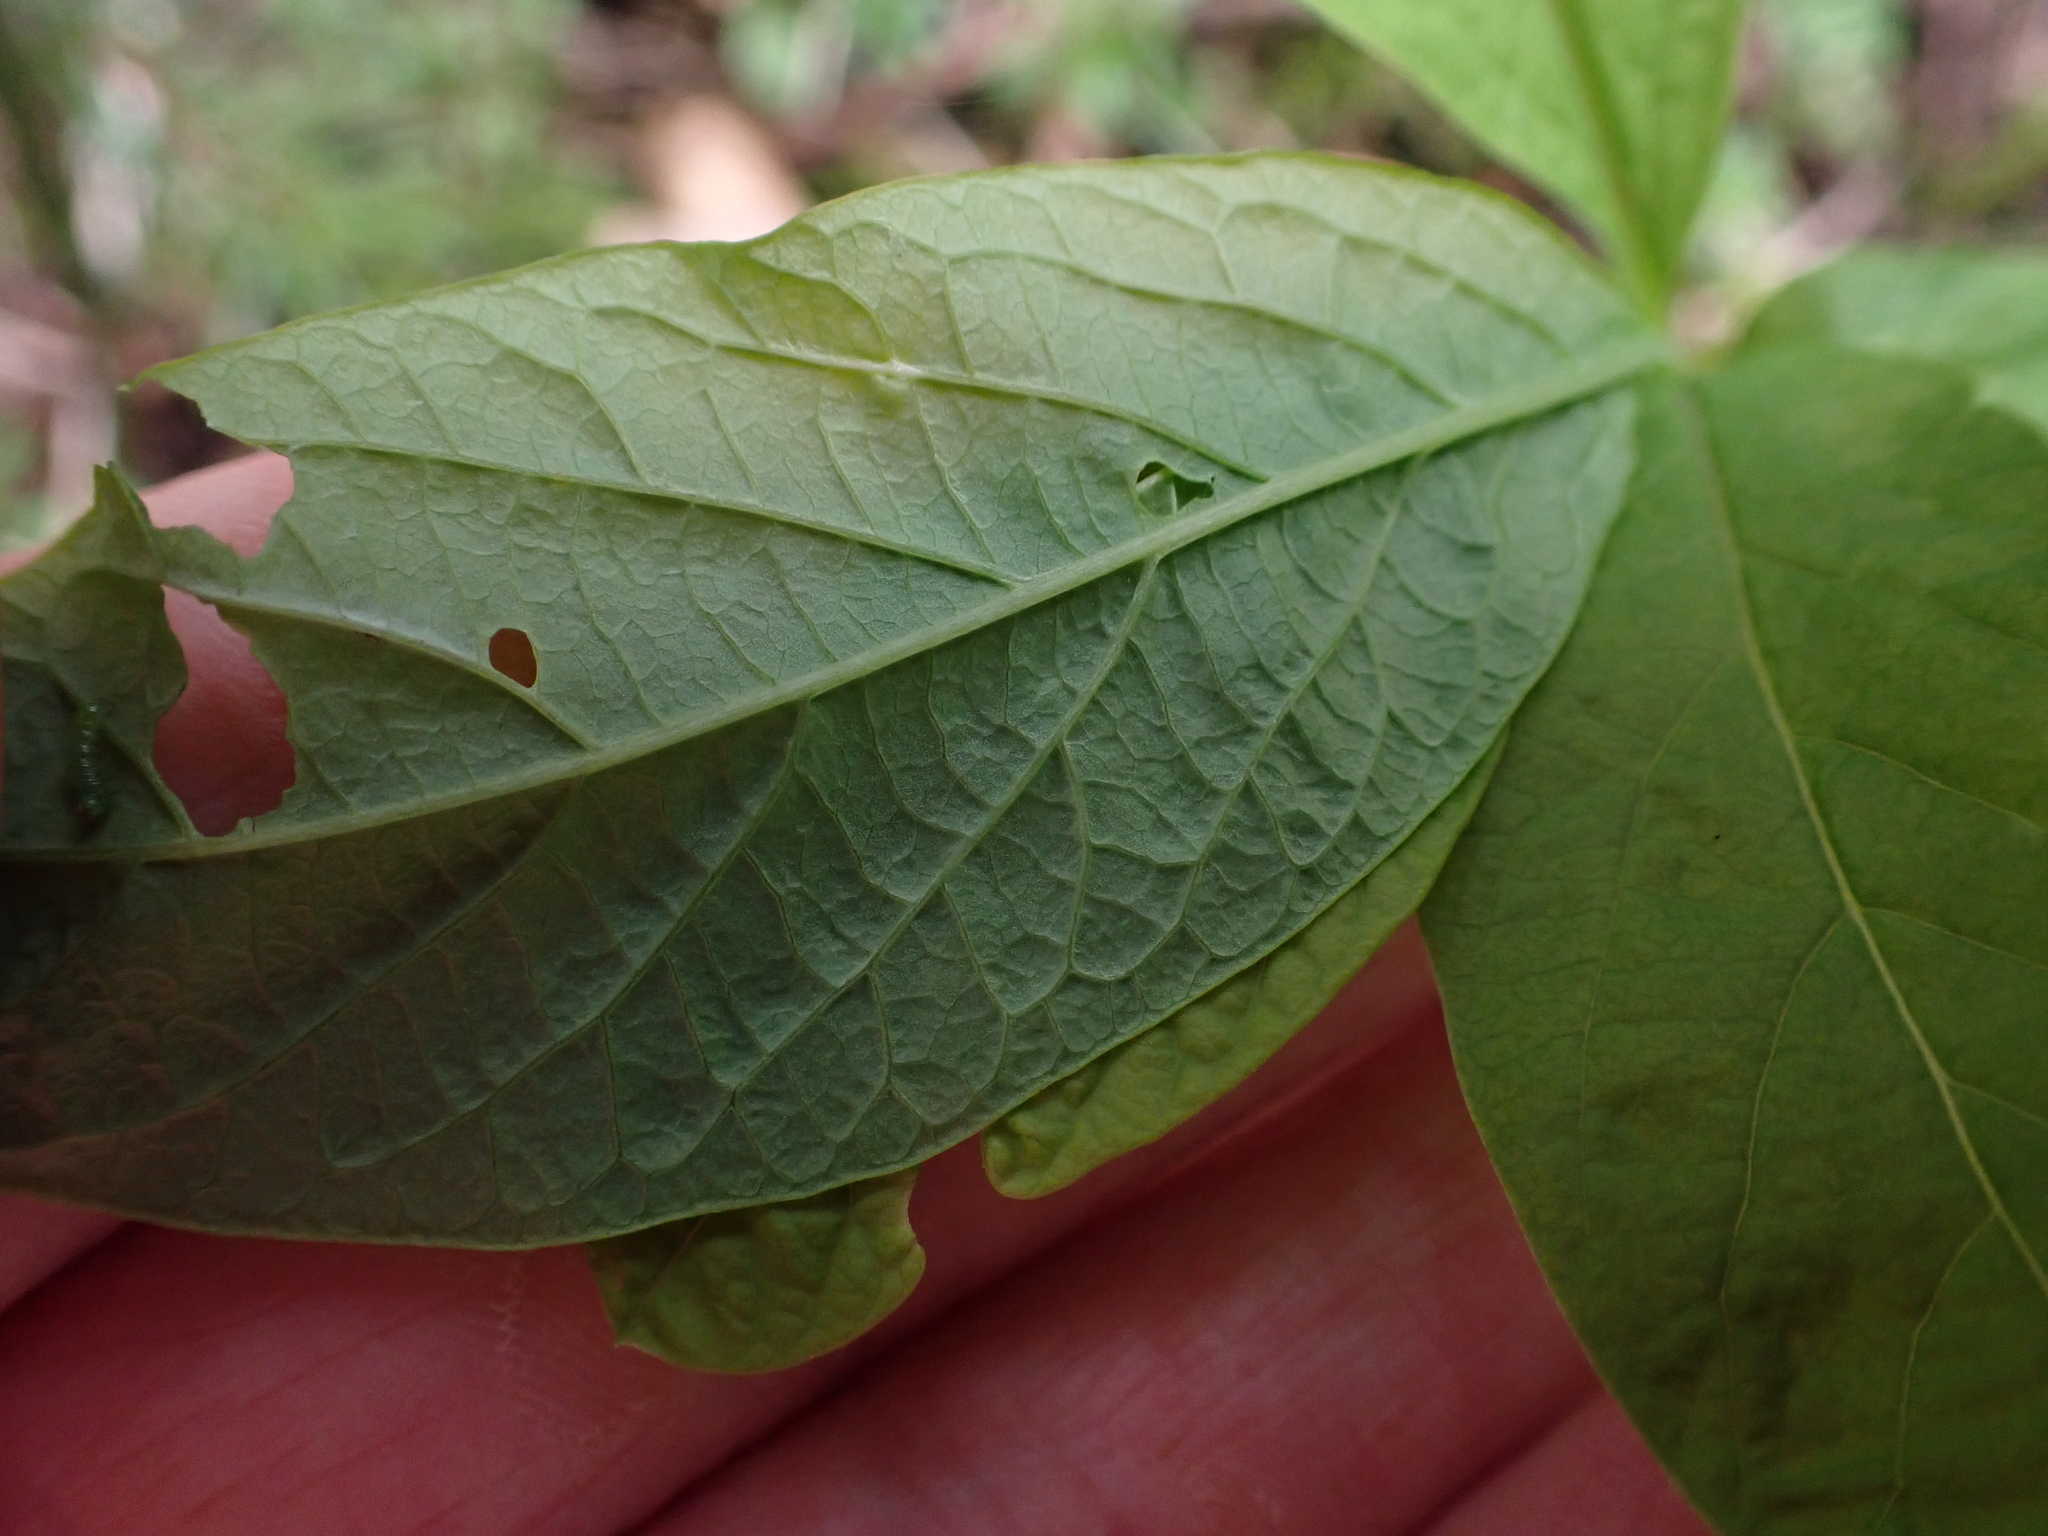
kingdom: Plantae
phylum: Tracheophyta
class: Magnoliopsida
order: Rosales
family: Rosaceae
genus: Oemleria
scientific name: Oemleria cerasiformis
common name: Osoberry
